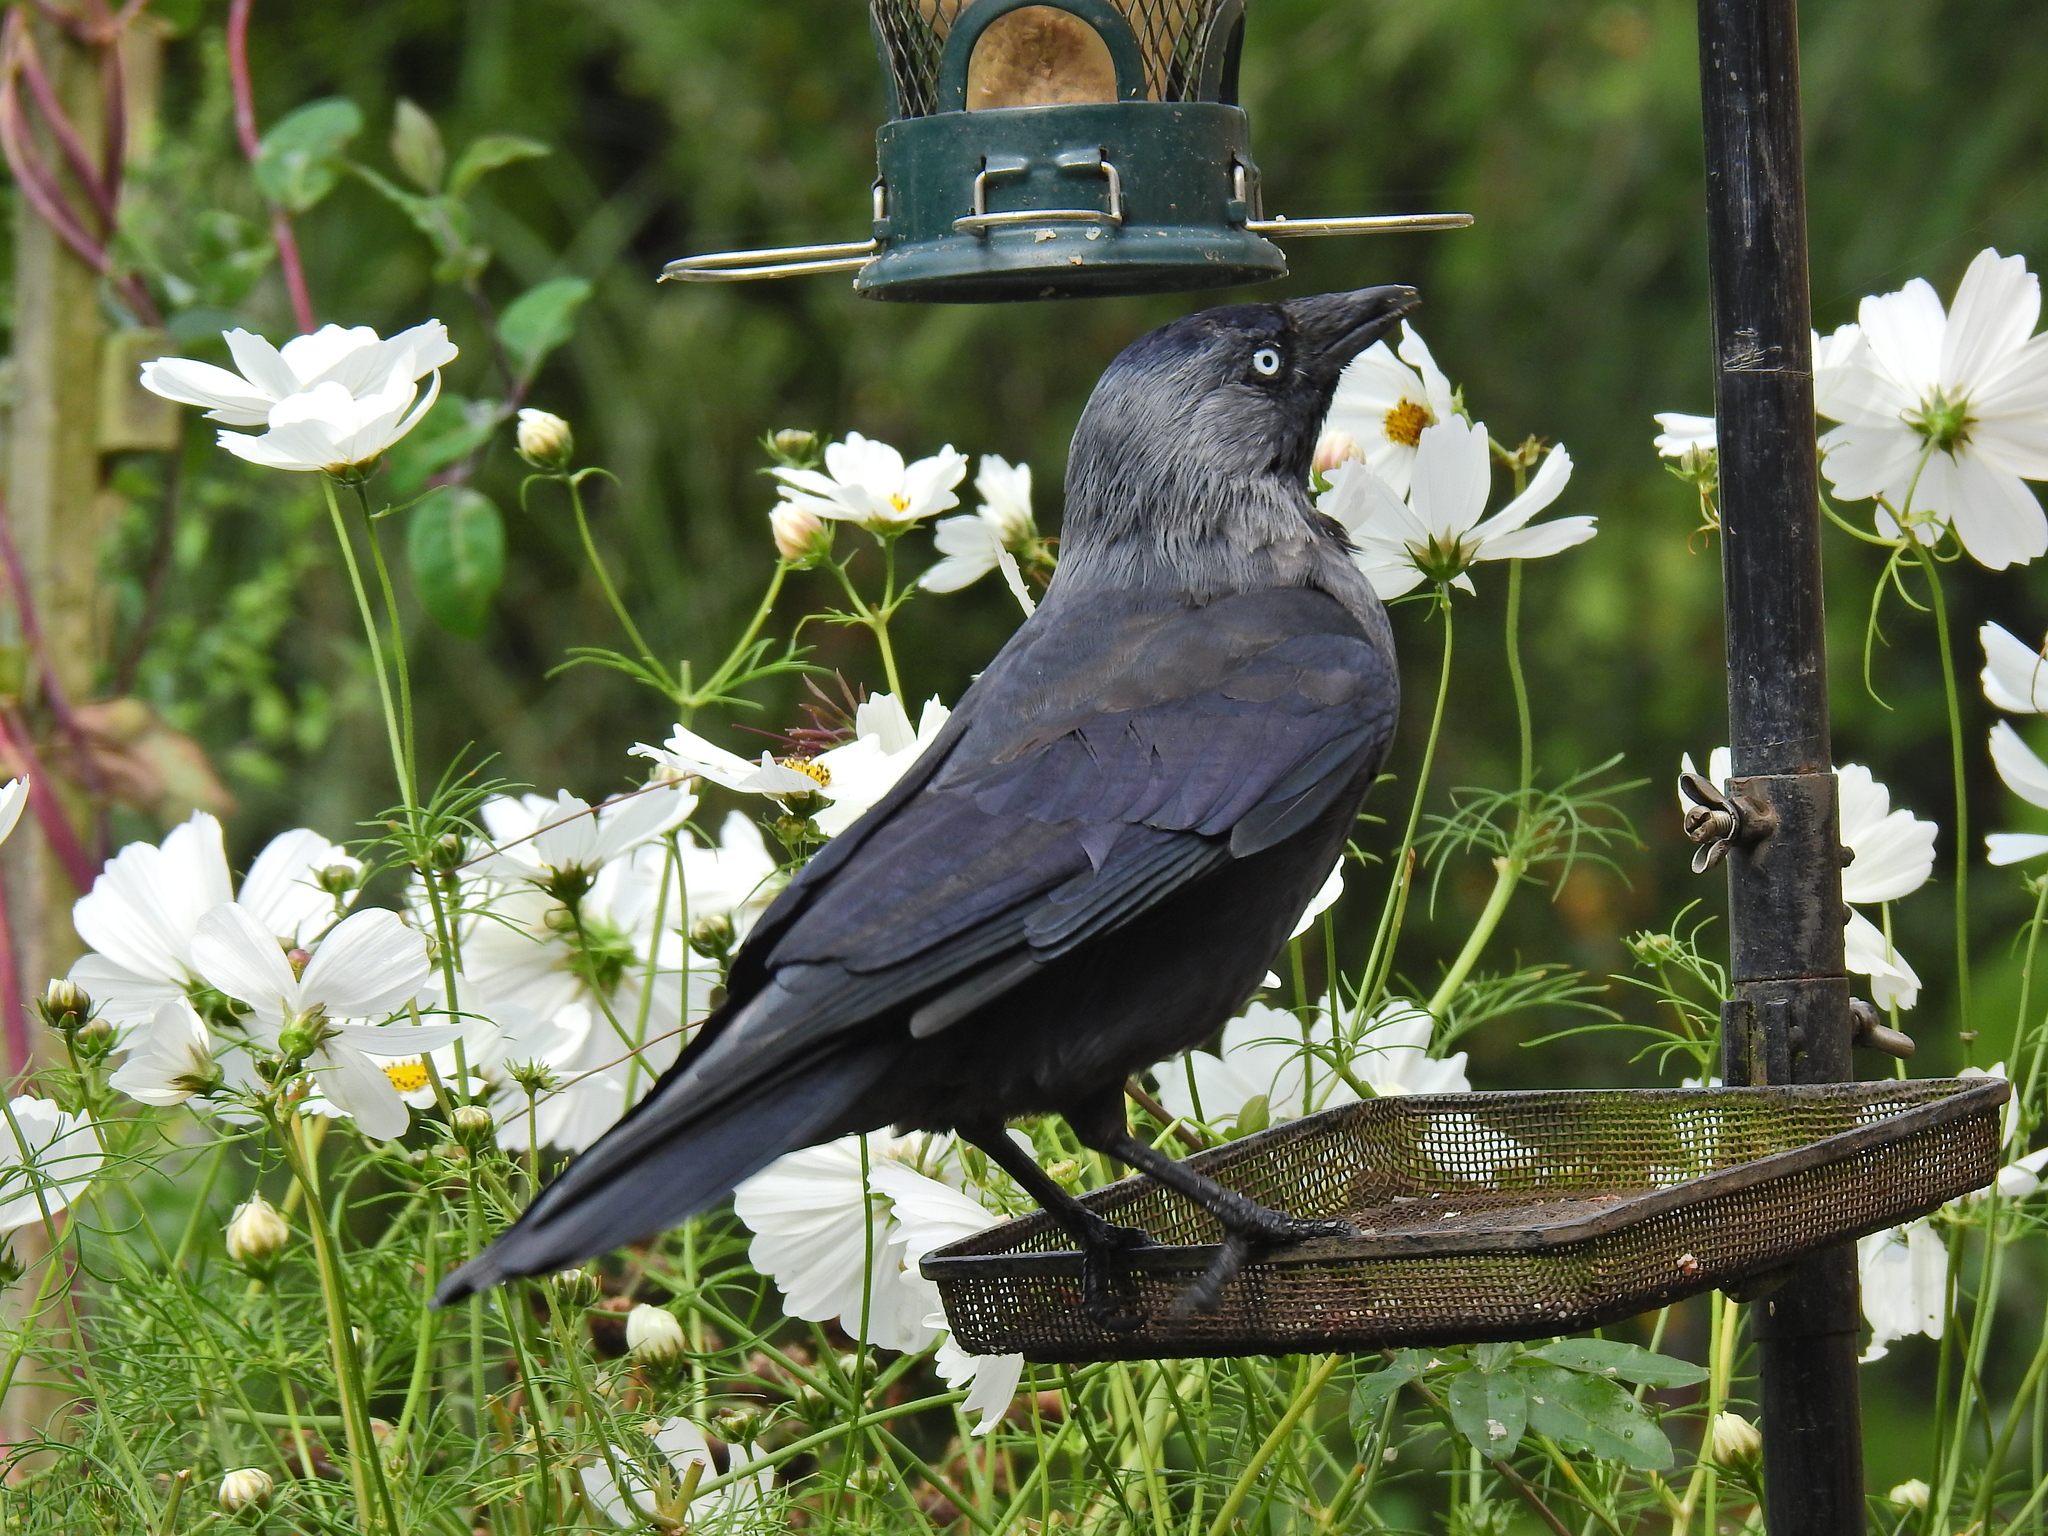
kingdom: Animalia
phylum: Chordata
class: Aves
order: Passeriformes
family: Corvidae
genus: Coloeus
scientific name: Coloeus monedula
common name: Western jackdaw
